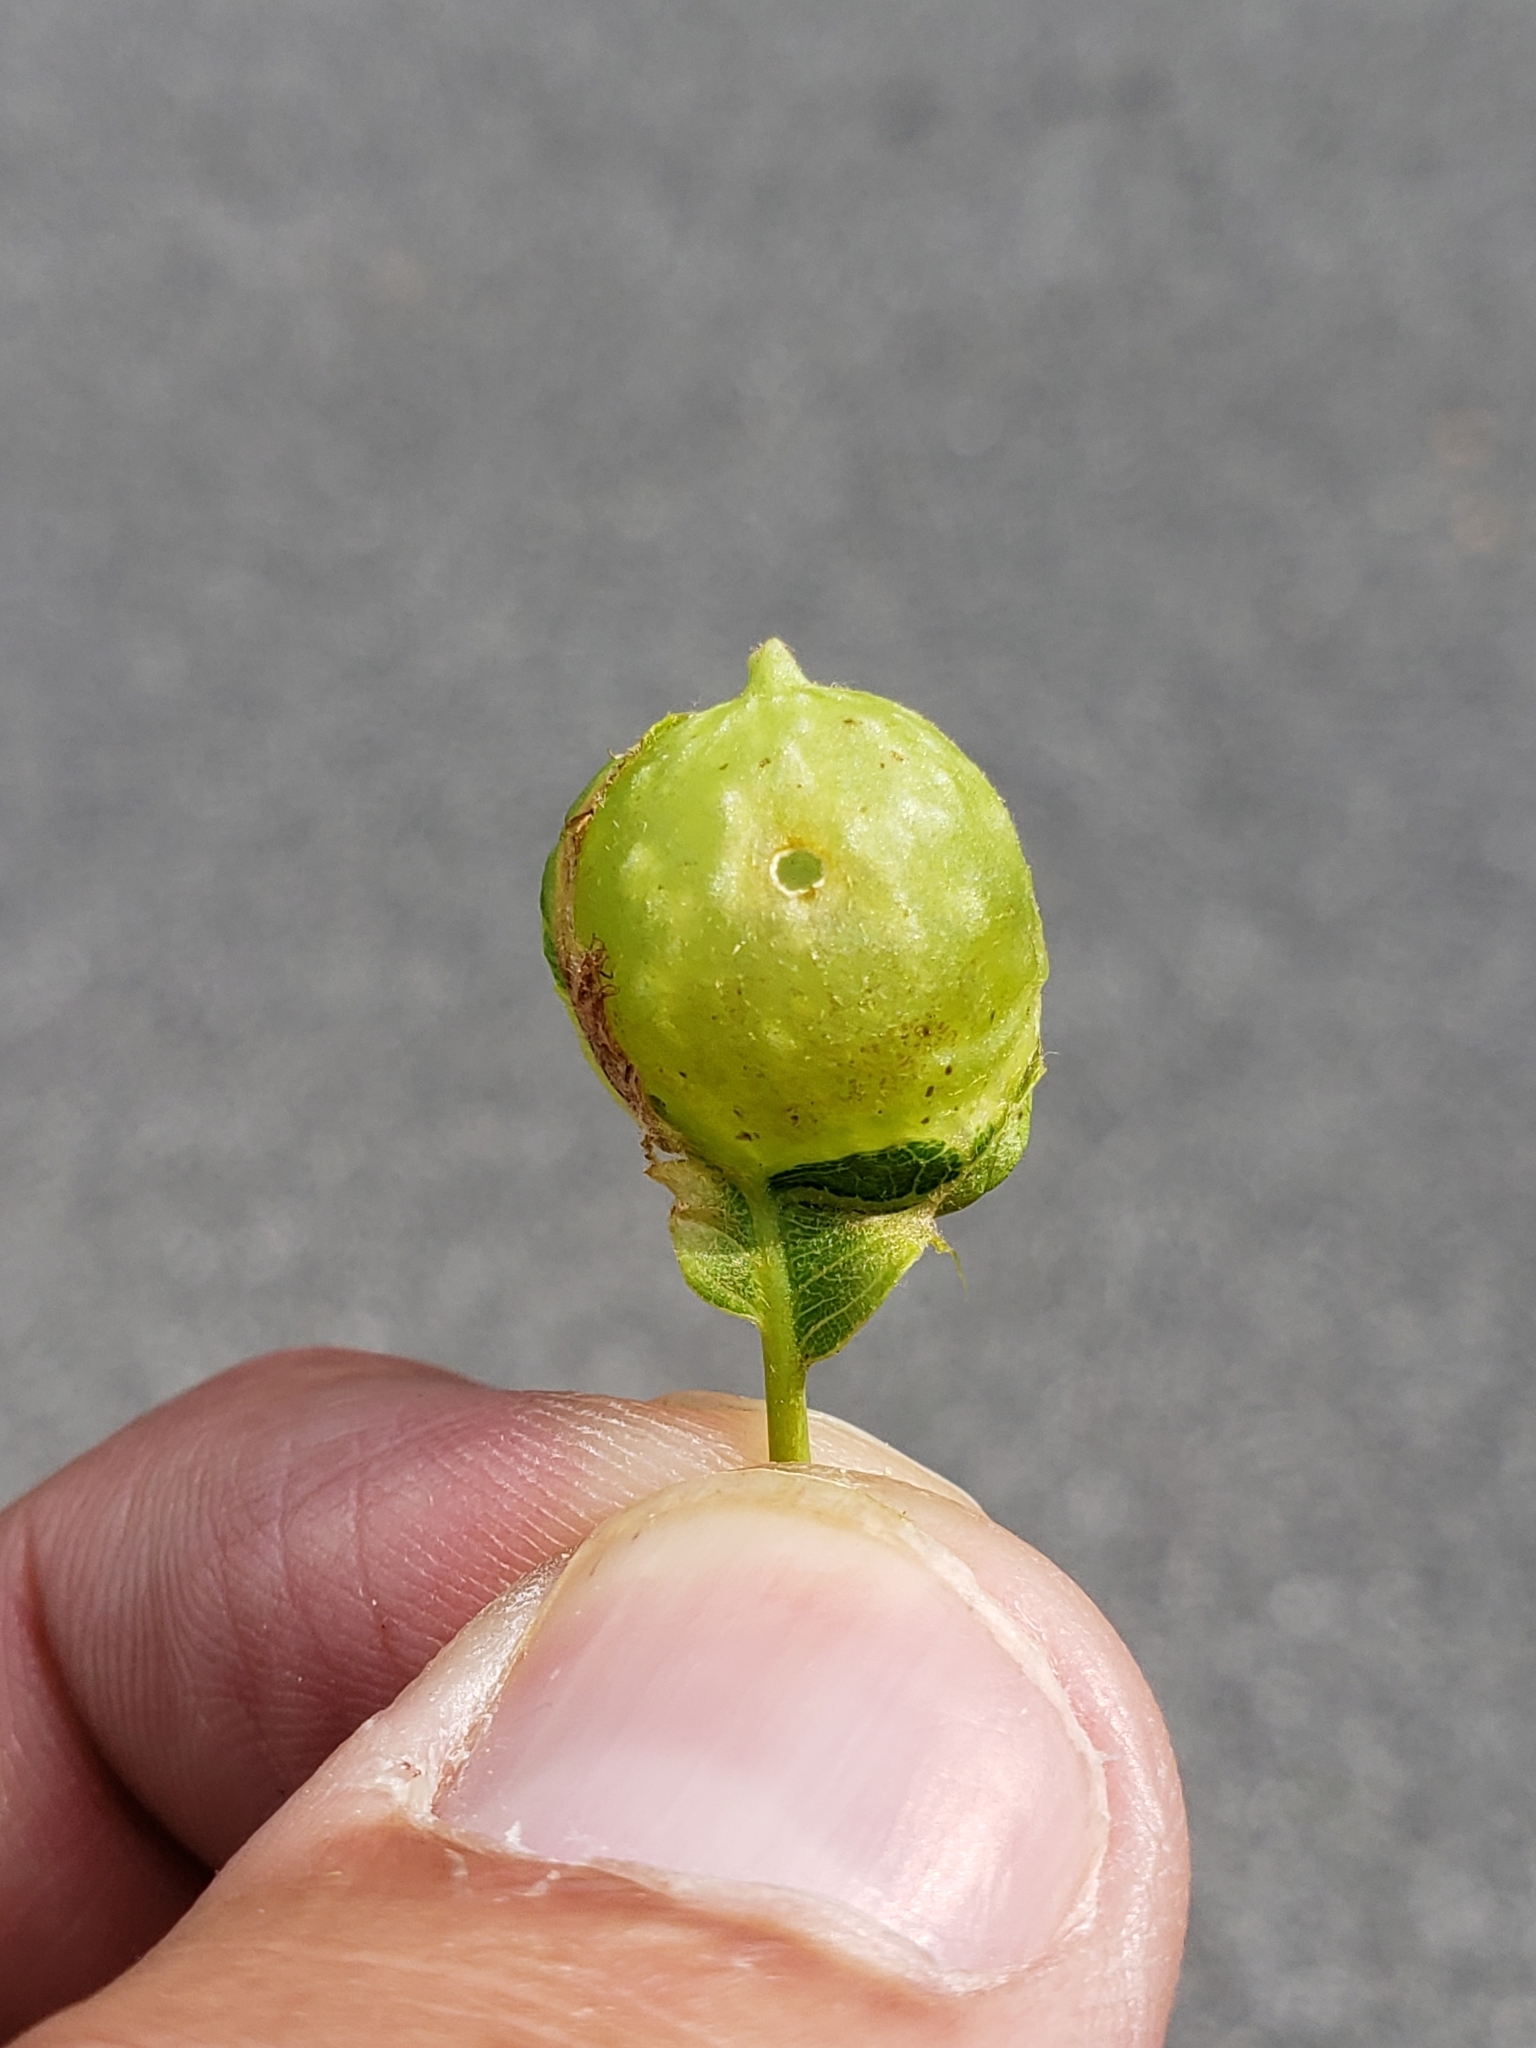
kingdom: Animalia
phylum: Arthropoda
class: Insecta
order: Hymenoptera
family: Cynipidae
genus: Dryocosmus
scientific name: Dryocosmus quercuspalustris
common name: Succulent oak gall wasp
